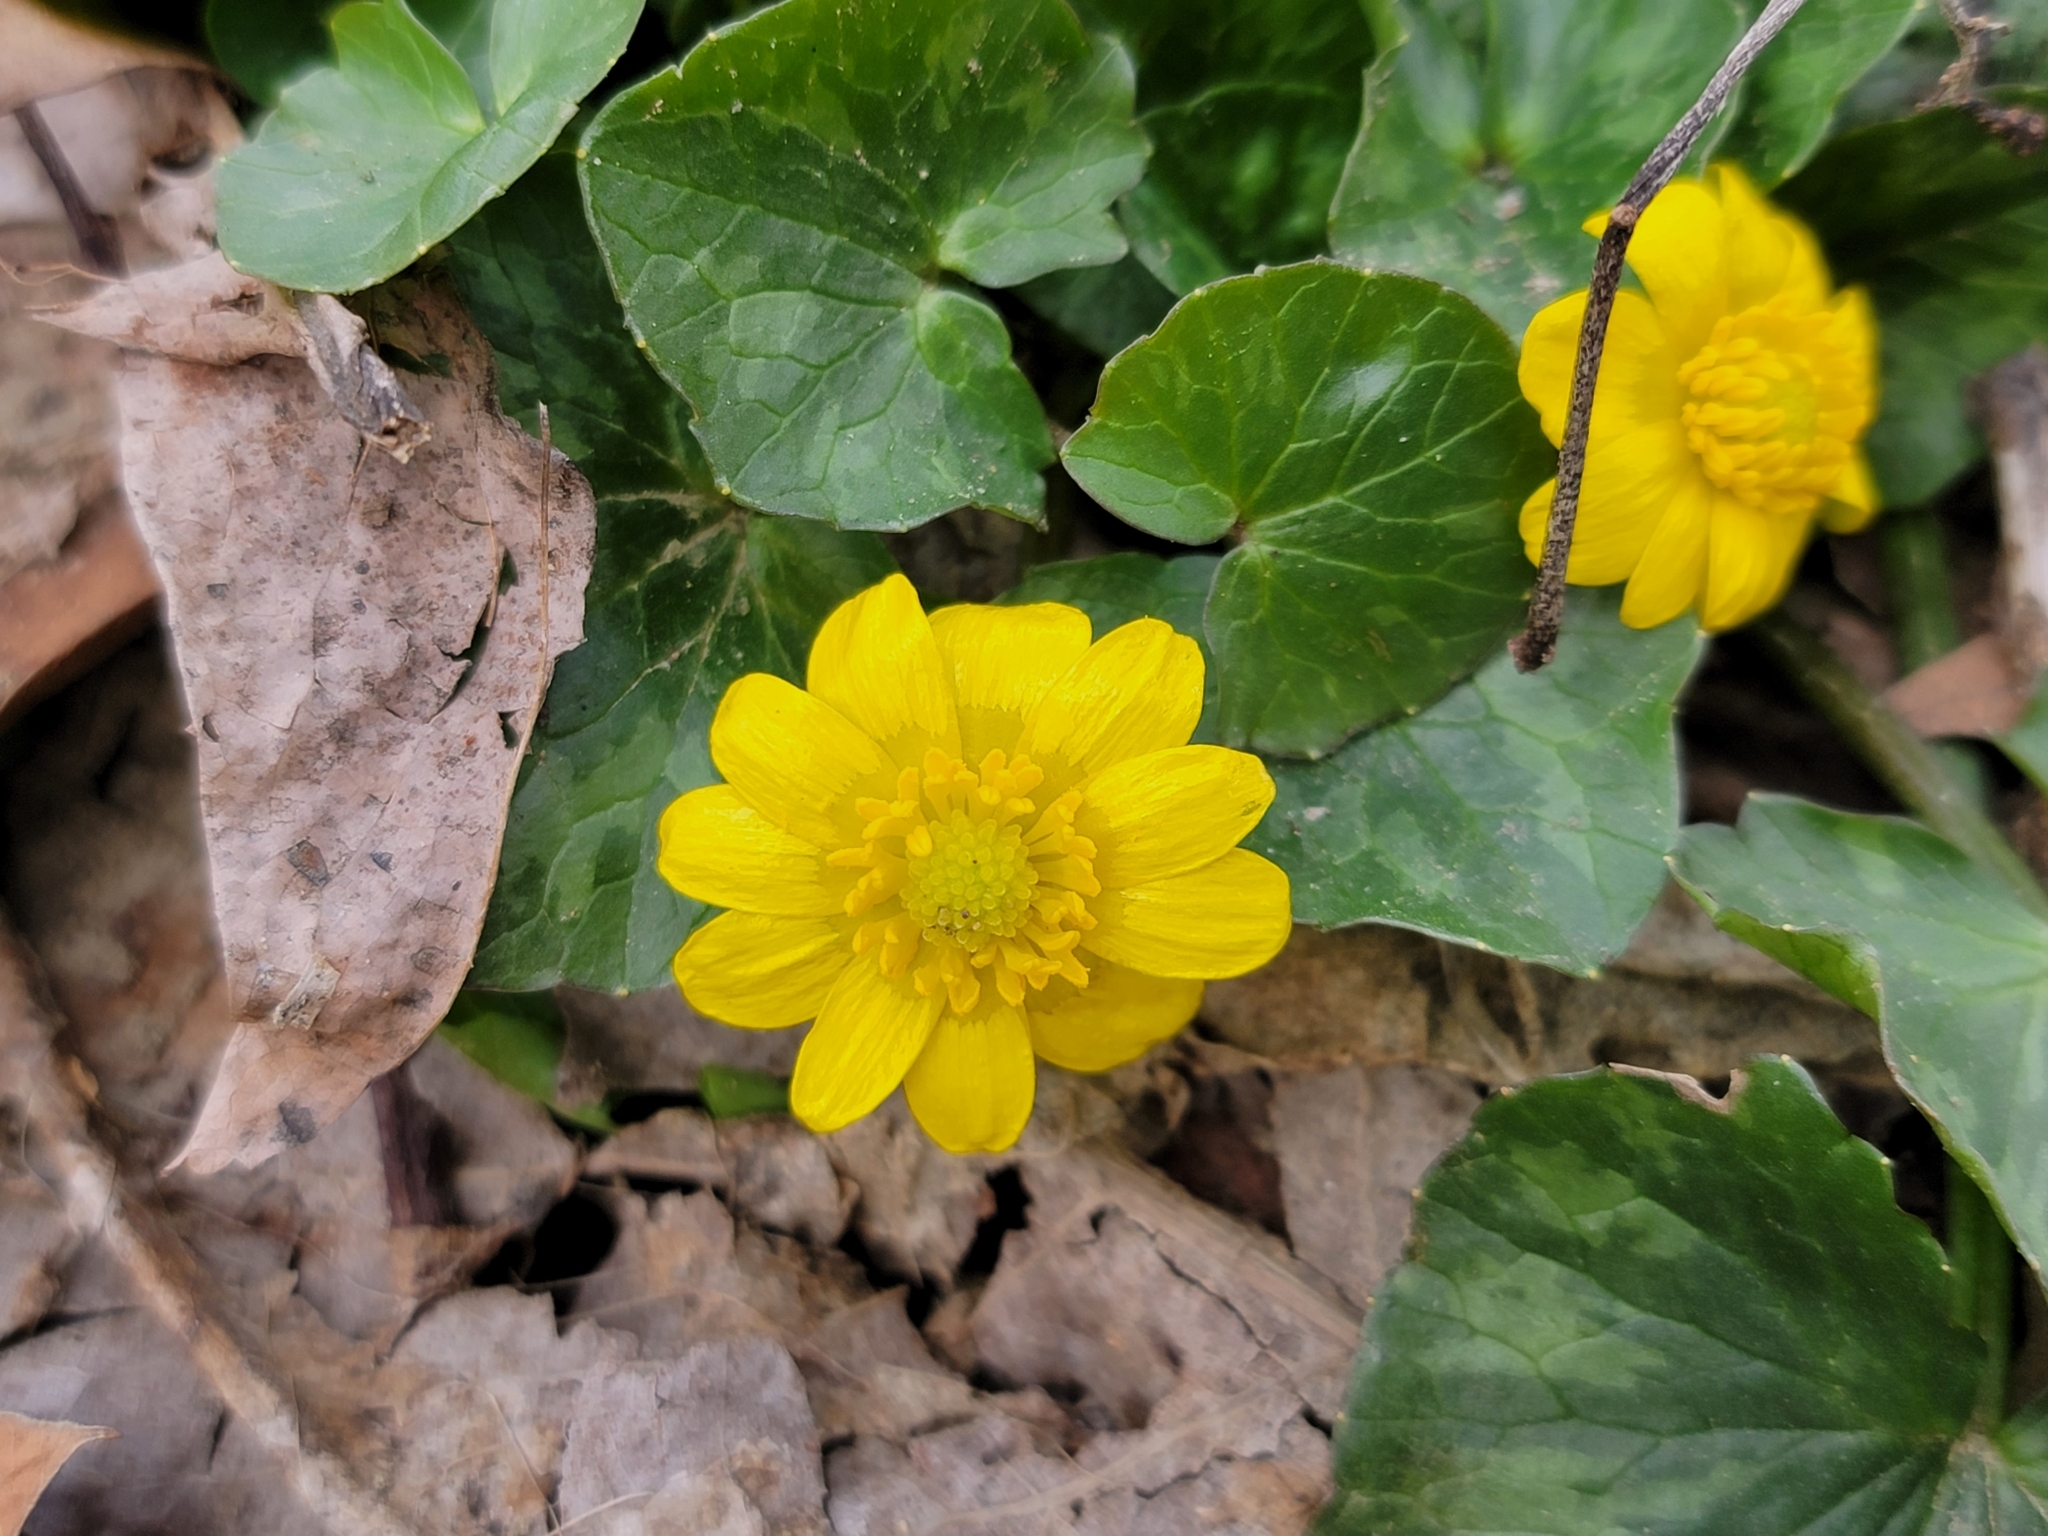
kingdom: Plantae
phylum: Tracheophyta
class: Magnoliopsida
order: Ranunculales
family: Ranunculaceae
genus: Ficaria
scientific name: Ficaria verna
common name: Lesser celandine
